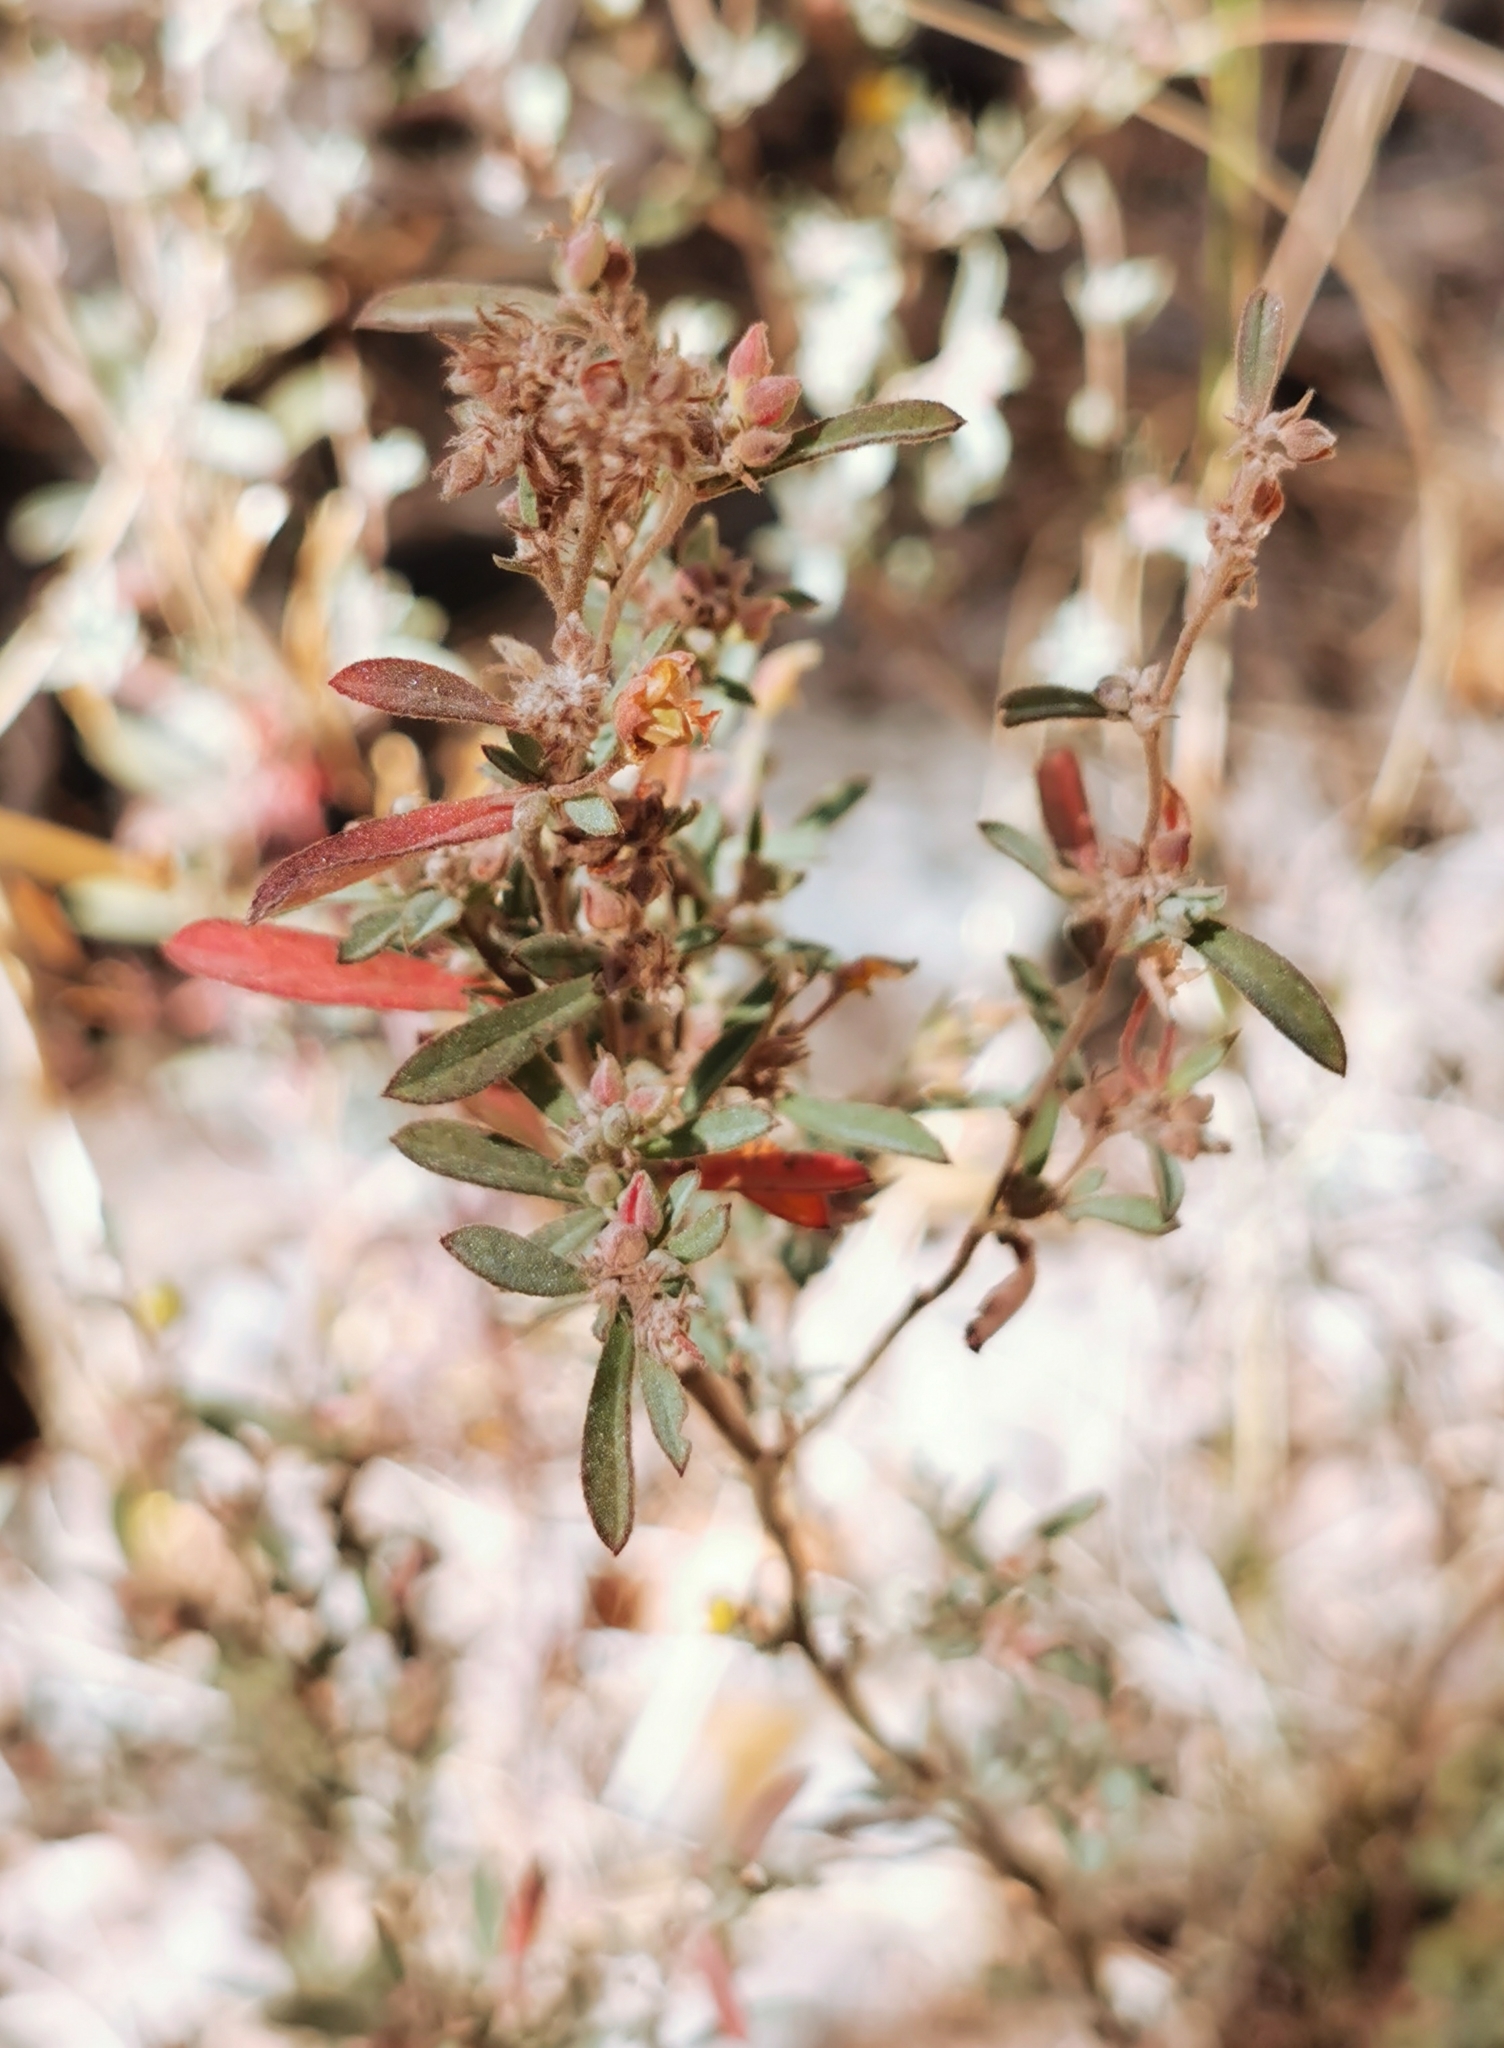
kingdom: Plantae
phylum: Tracheophyta
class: Magnoliopsida
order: Malvales
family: Cistaceae
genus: Crocanthemum
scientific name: Crocanthemum glomeratum
